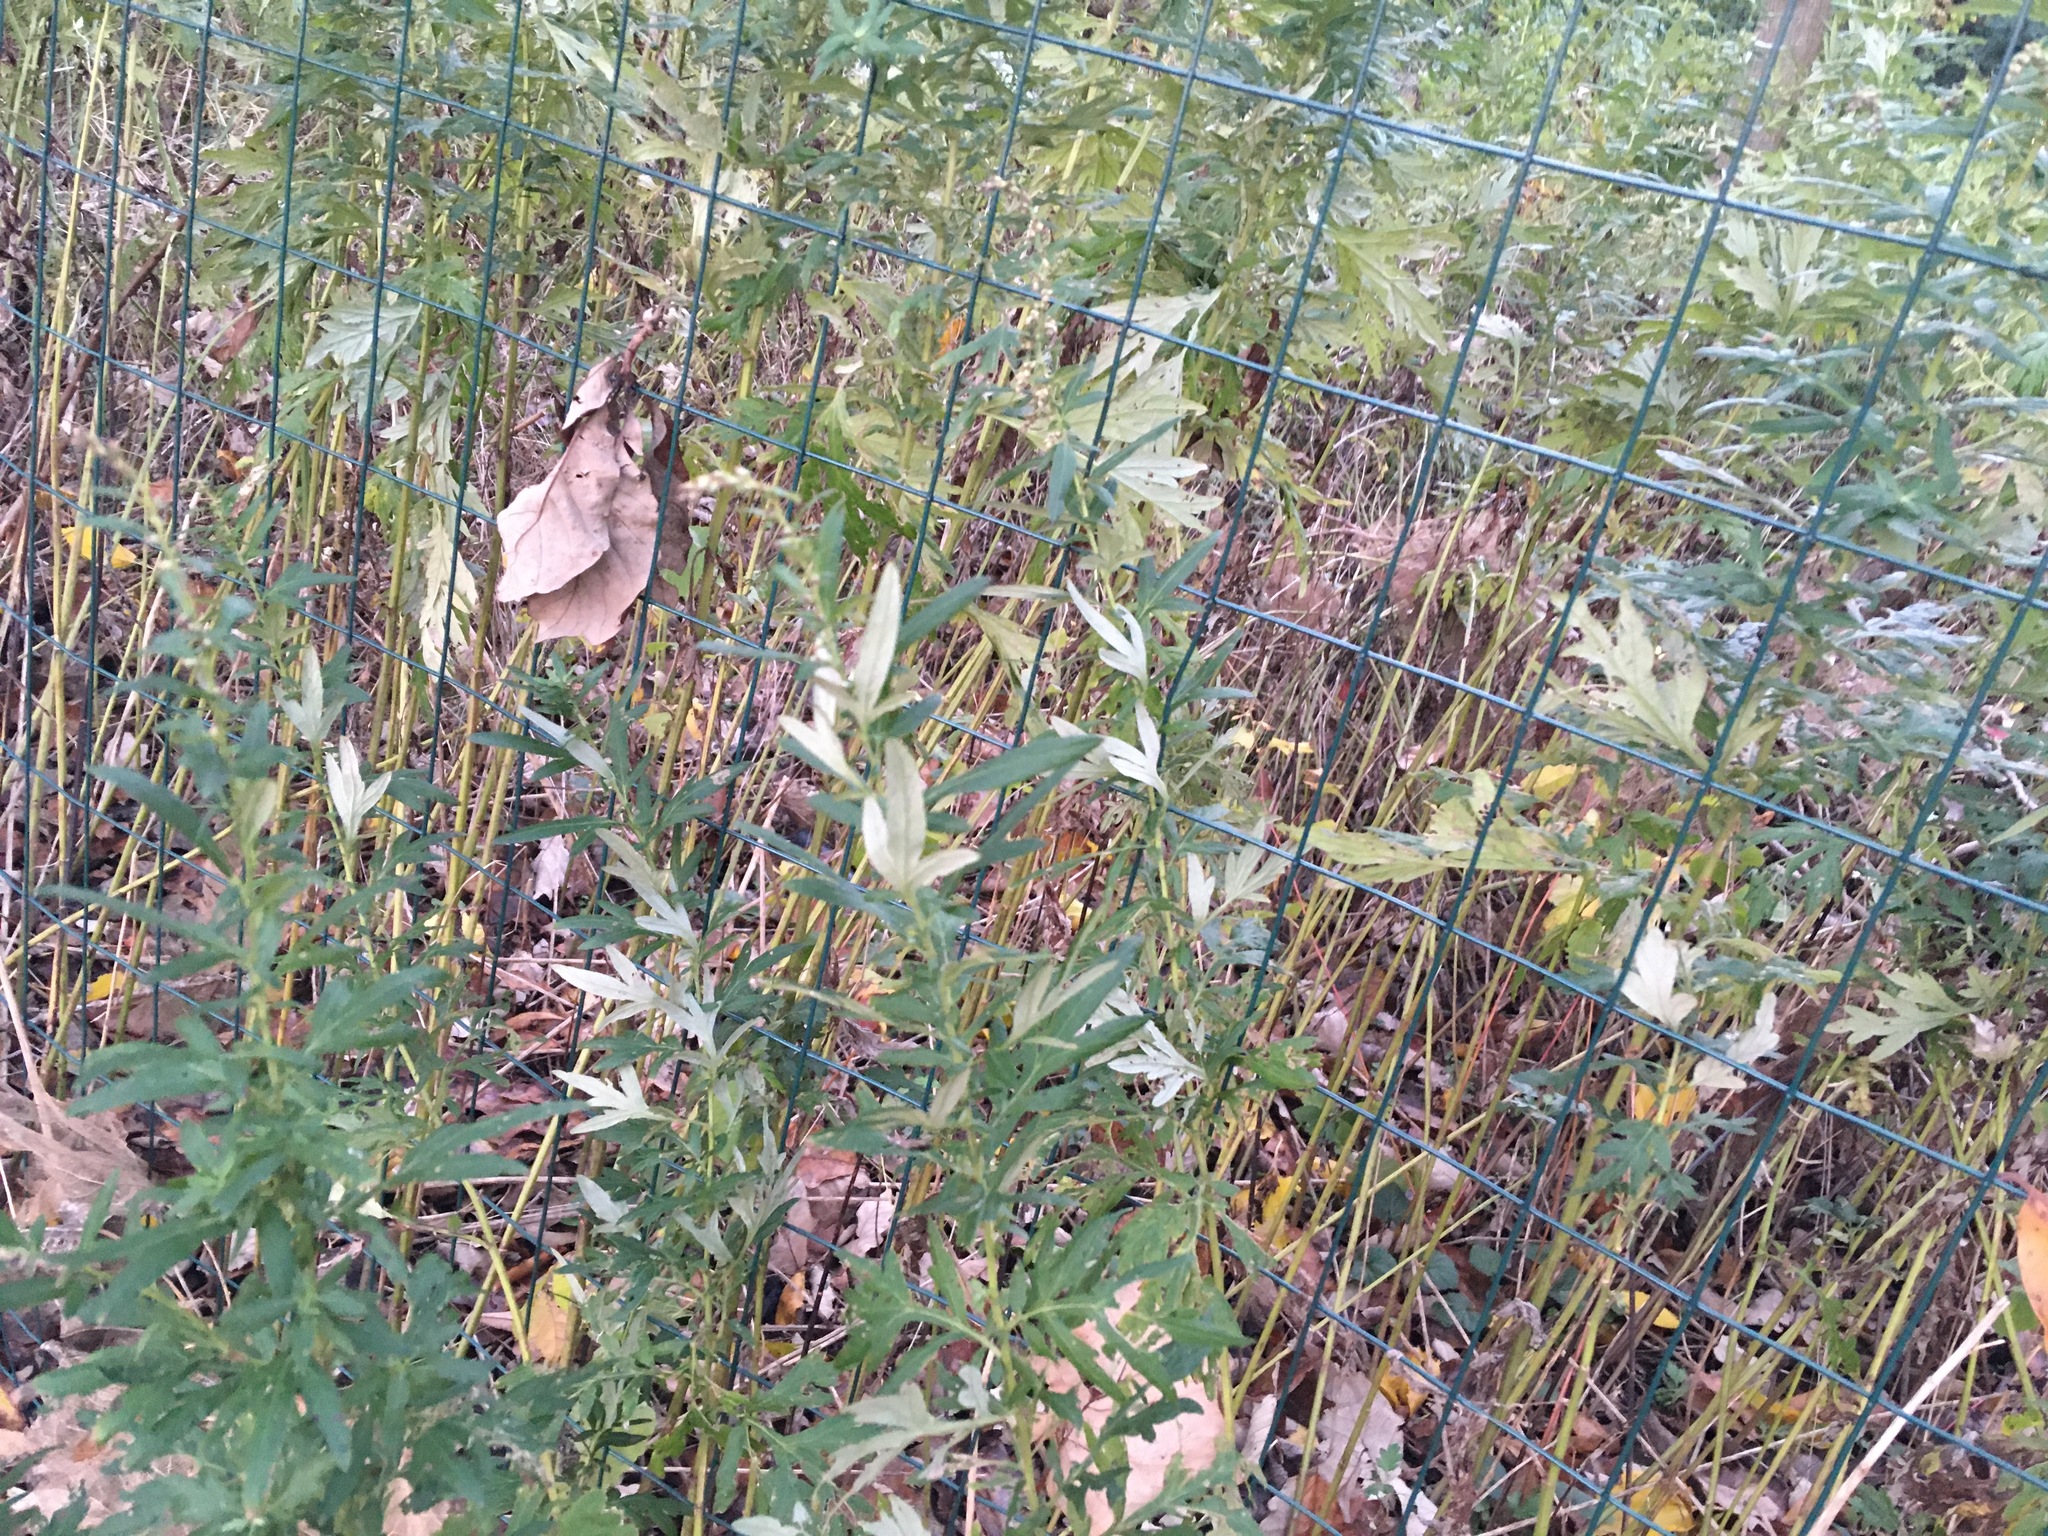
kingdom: Plantae
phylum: Tracheophyta
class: Magnoliopsida
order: Asterales
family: Asteraceae
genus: Artemisia
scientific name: Artemisia vulgaris
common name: Mugwort
